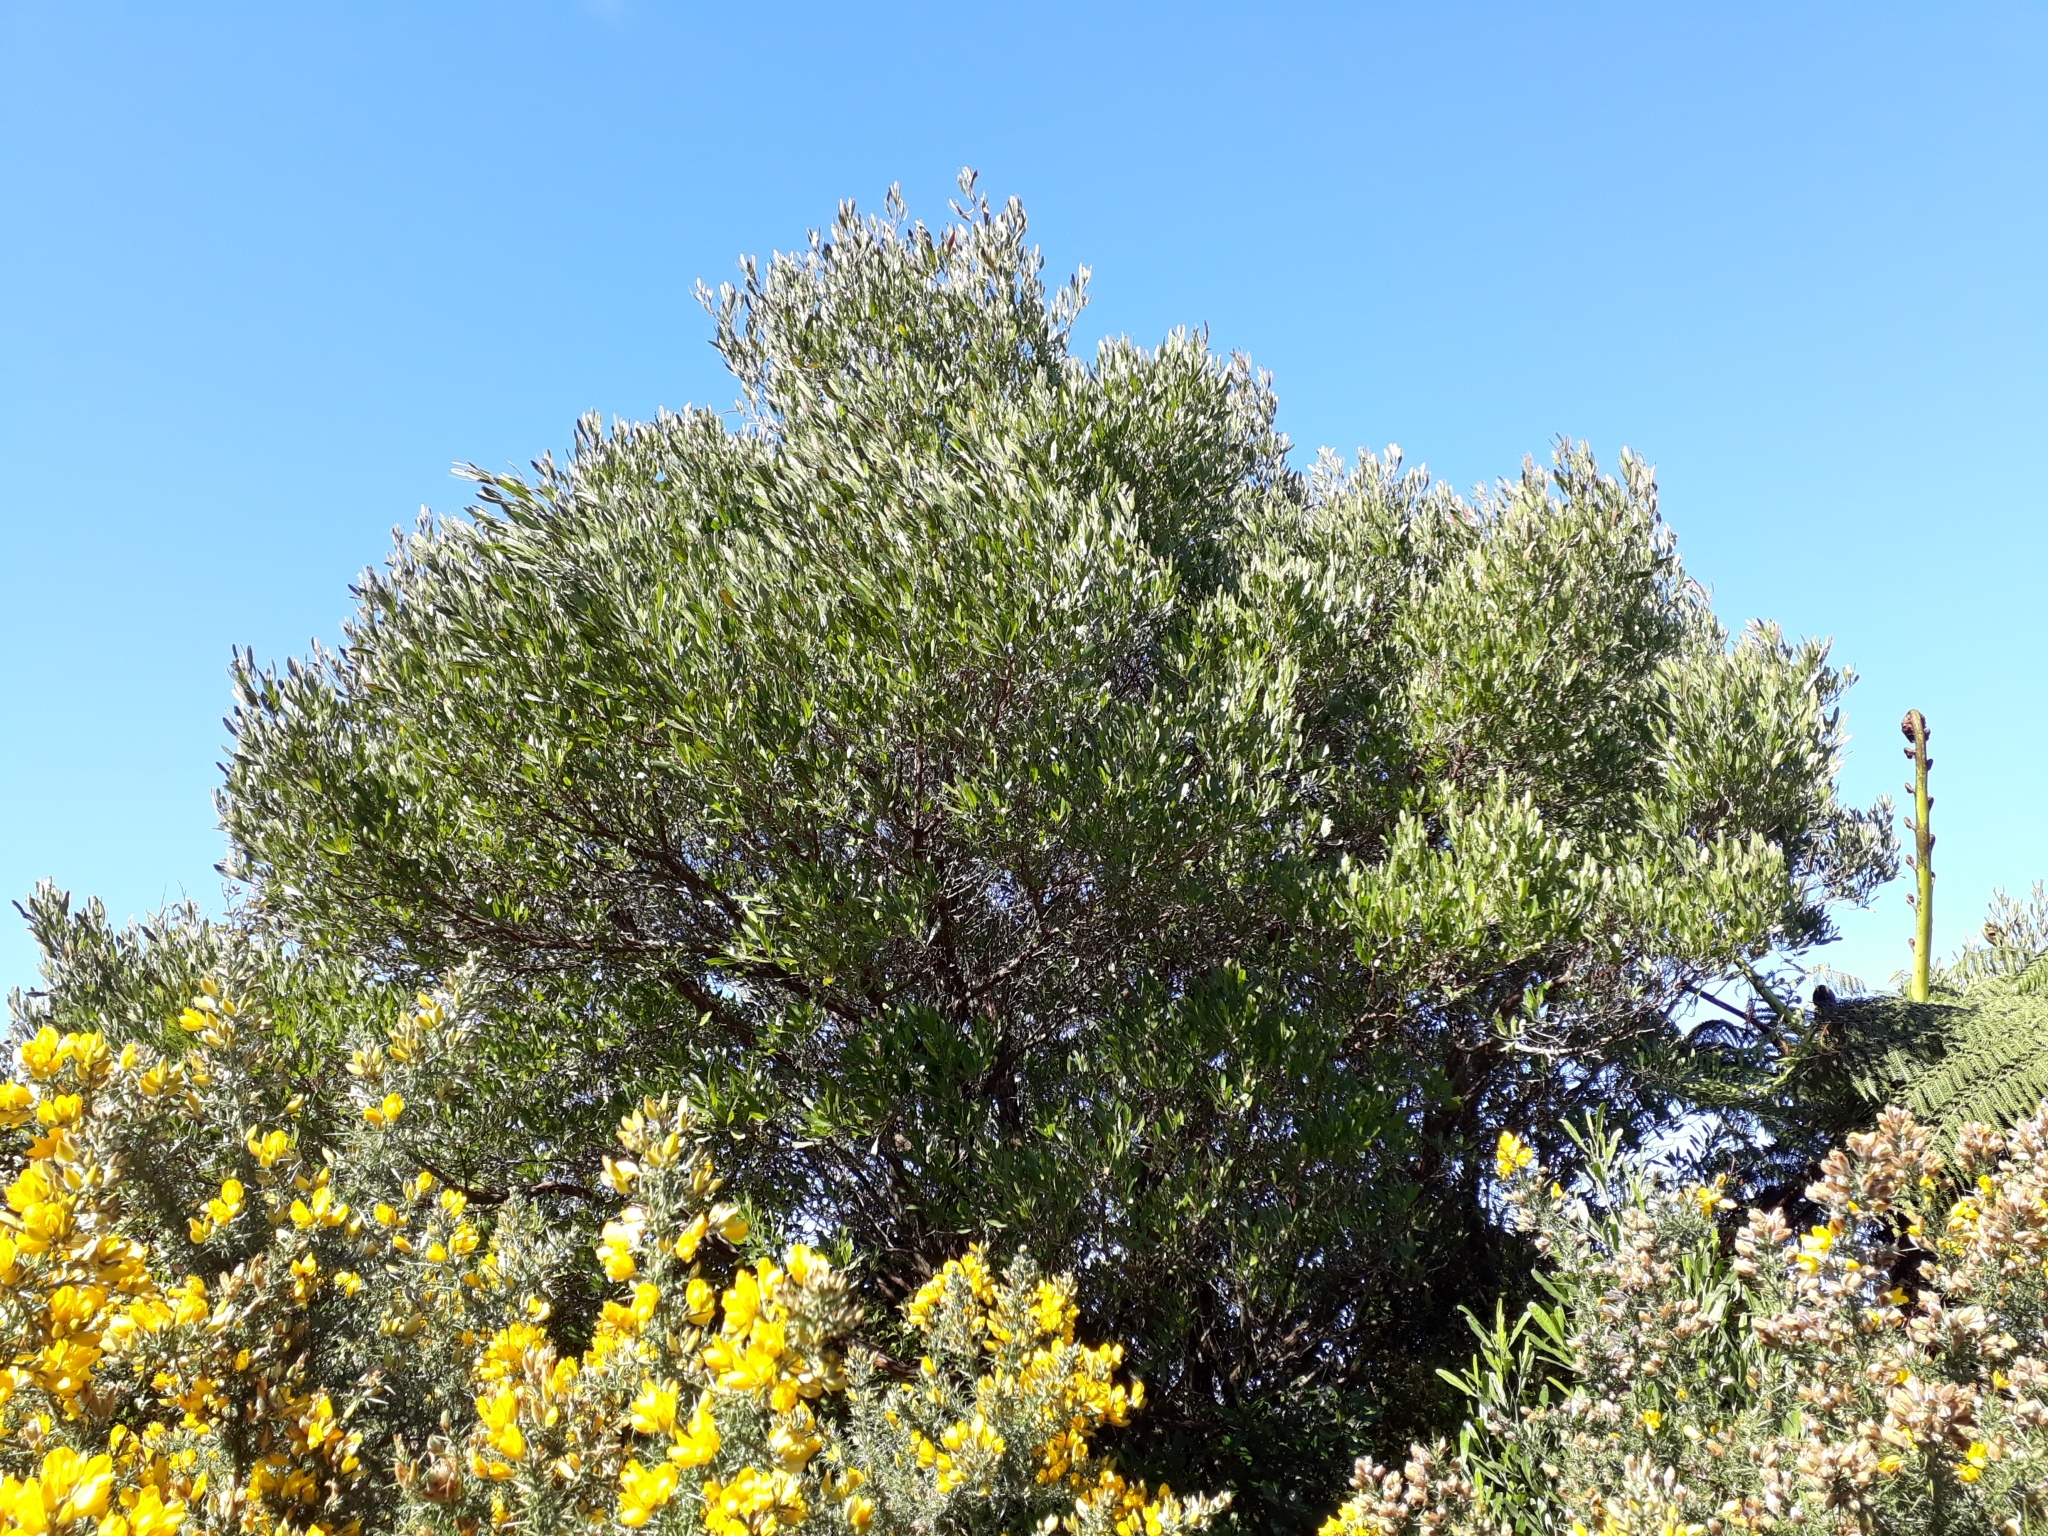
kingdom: Plantae
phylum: Tracheophyta
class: Magnoliopsida
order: Sapindales
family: Sapindaceae
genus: Dodonaea
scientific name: Dodonaea viscosa
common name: Hopbush
